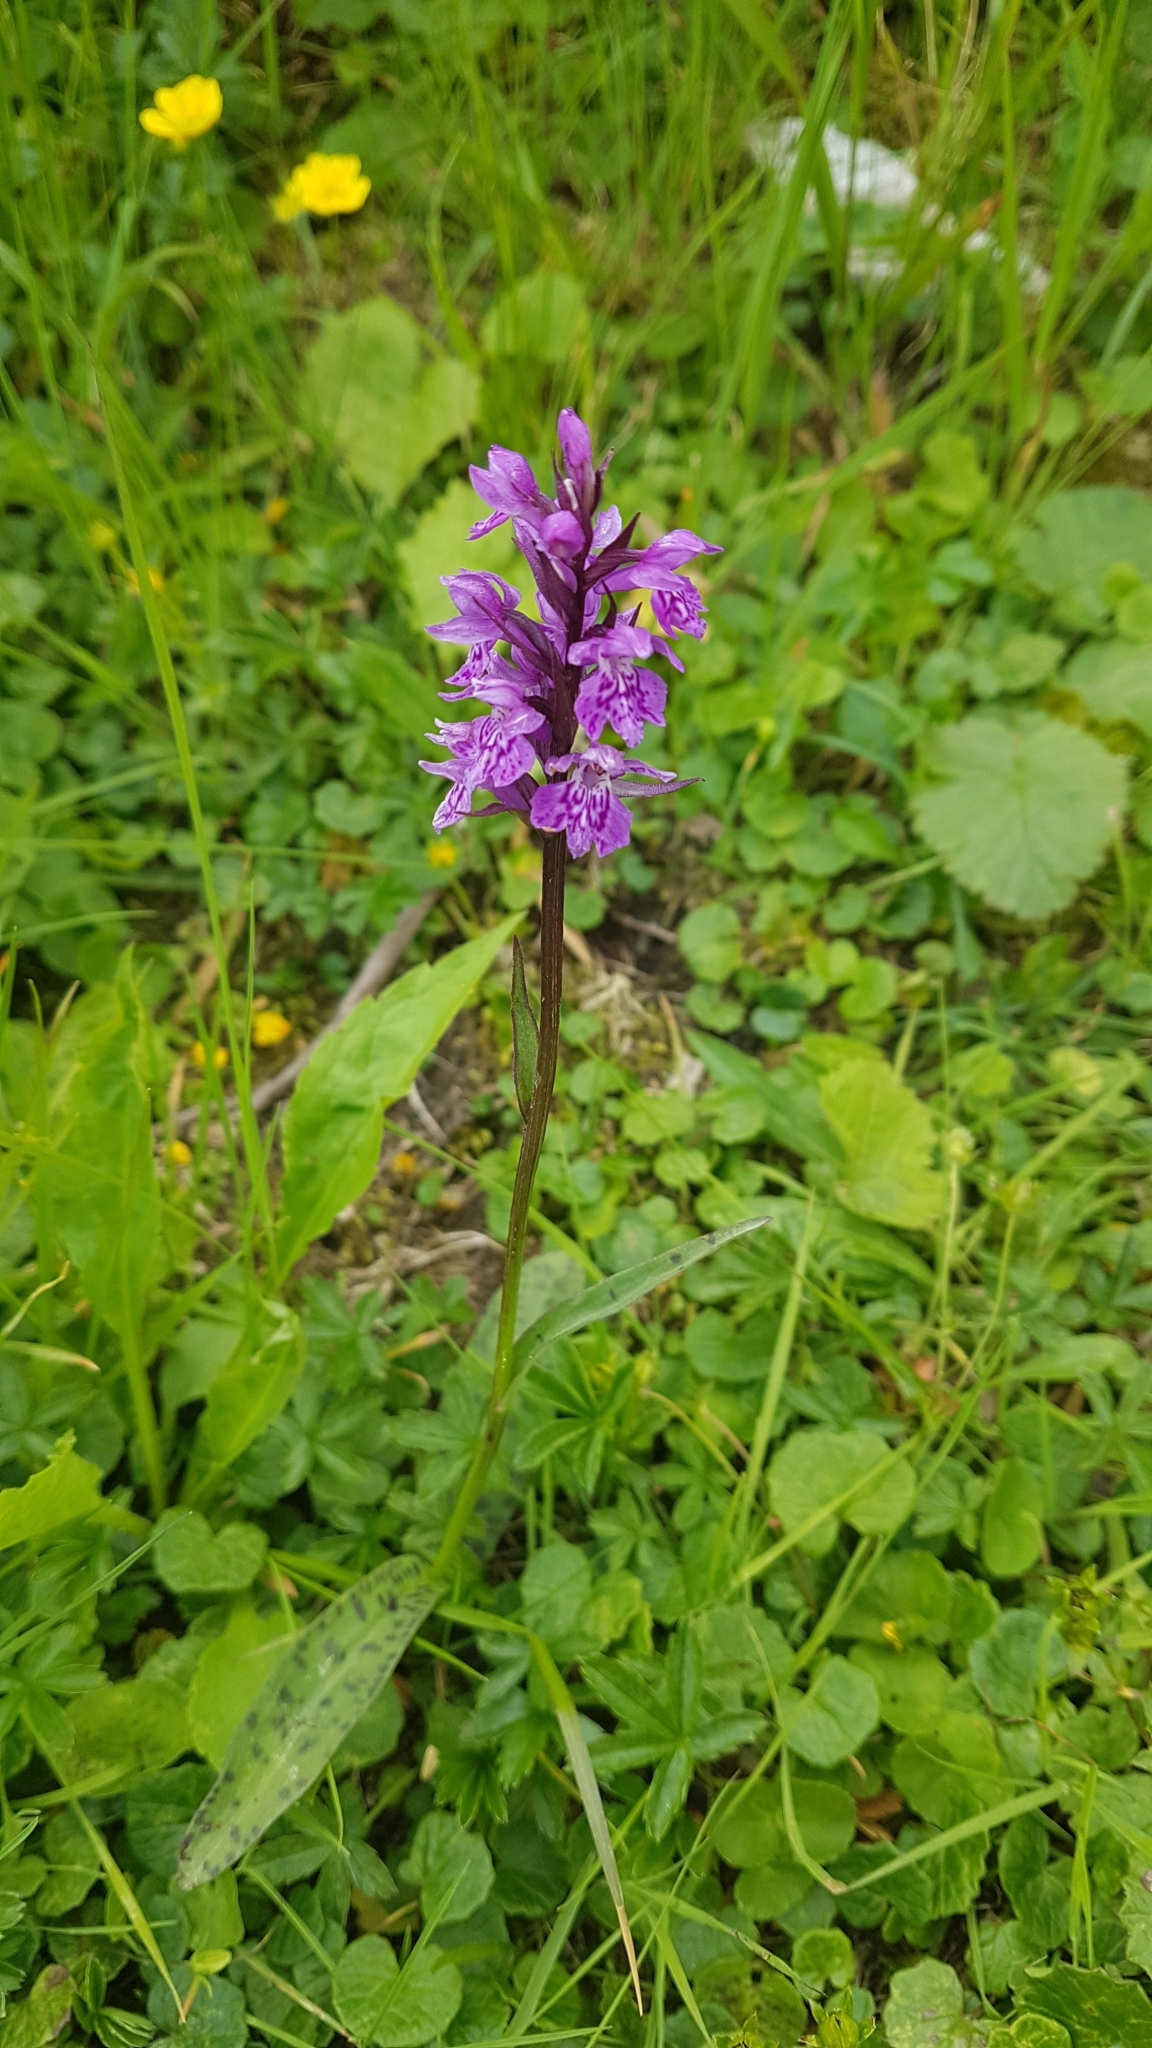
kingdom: Plantae
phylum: Tracheophyta
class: Liliopsida
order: Asparagales
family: Orchidaceae
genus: Dactylorhiza
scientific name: Dactylorhiza maculata
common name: Heath spotted-orchid
